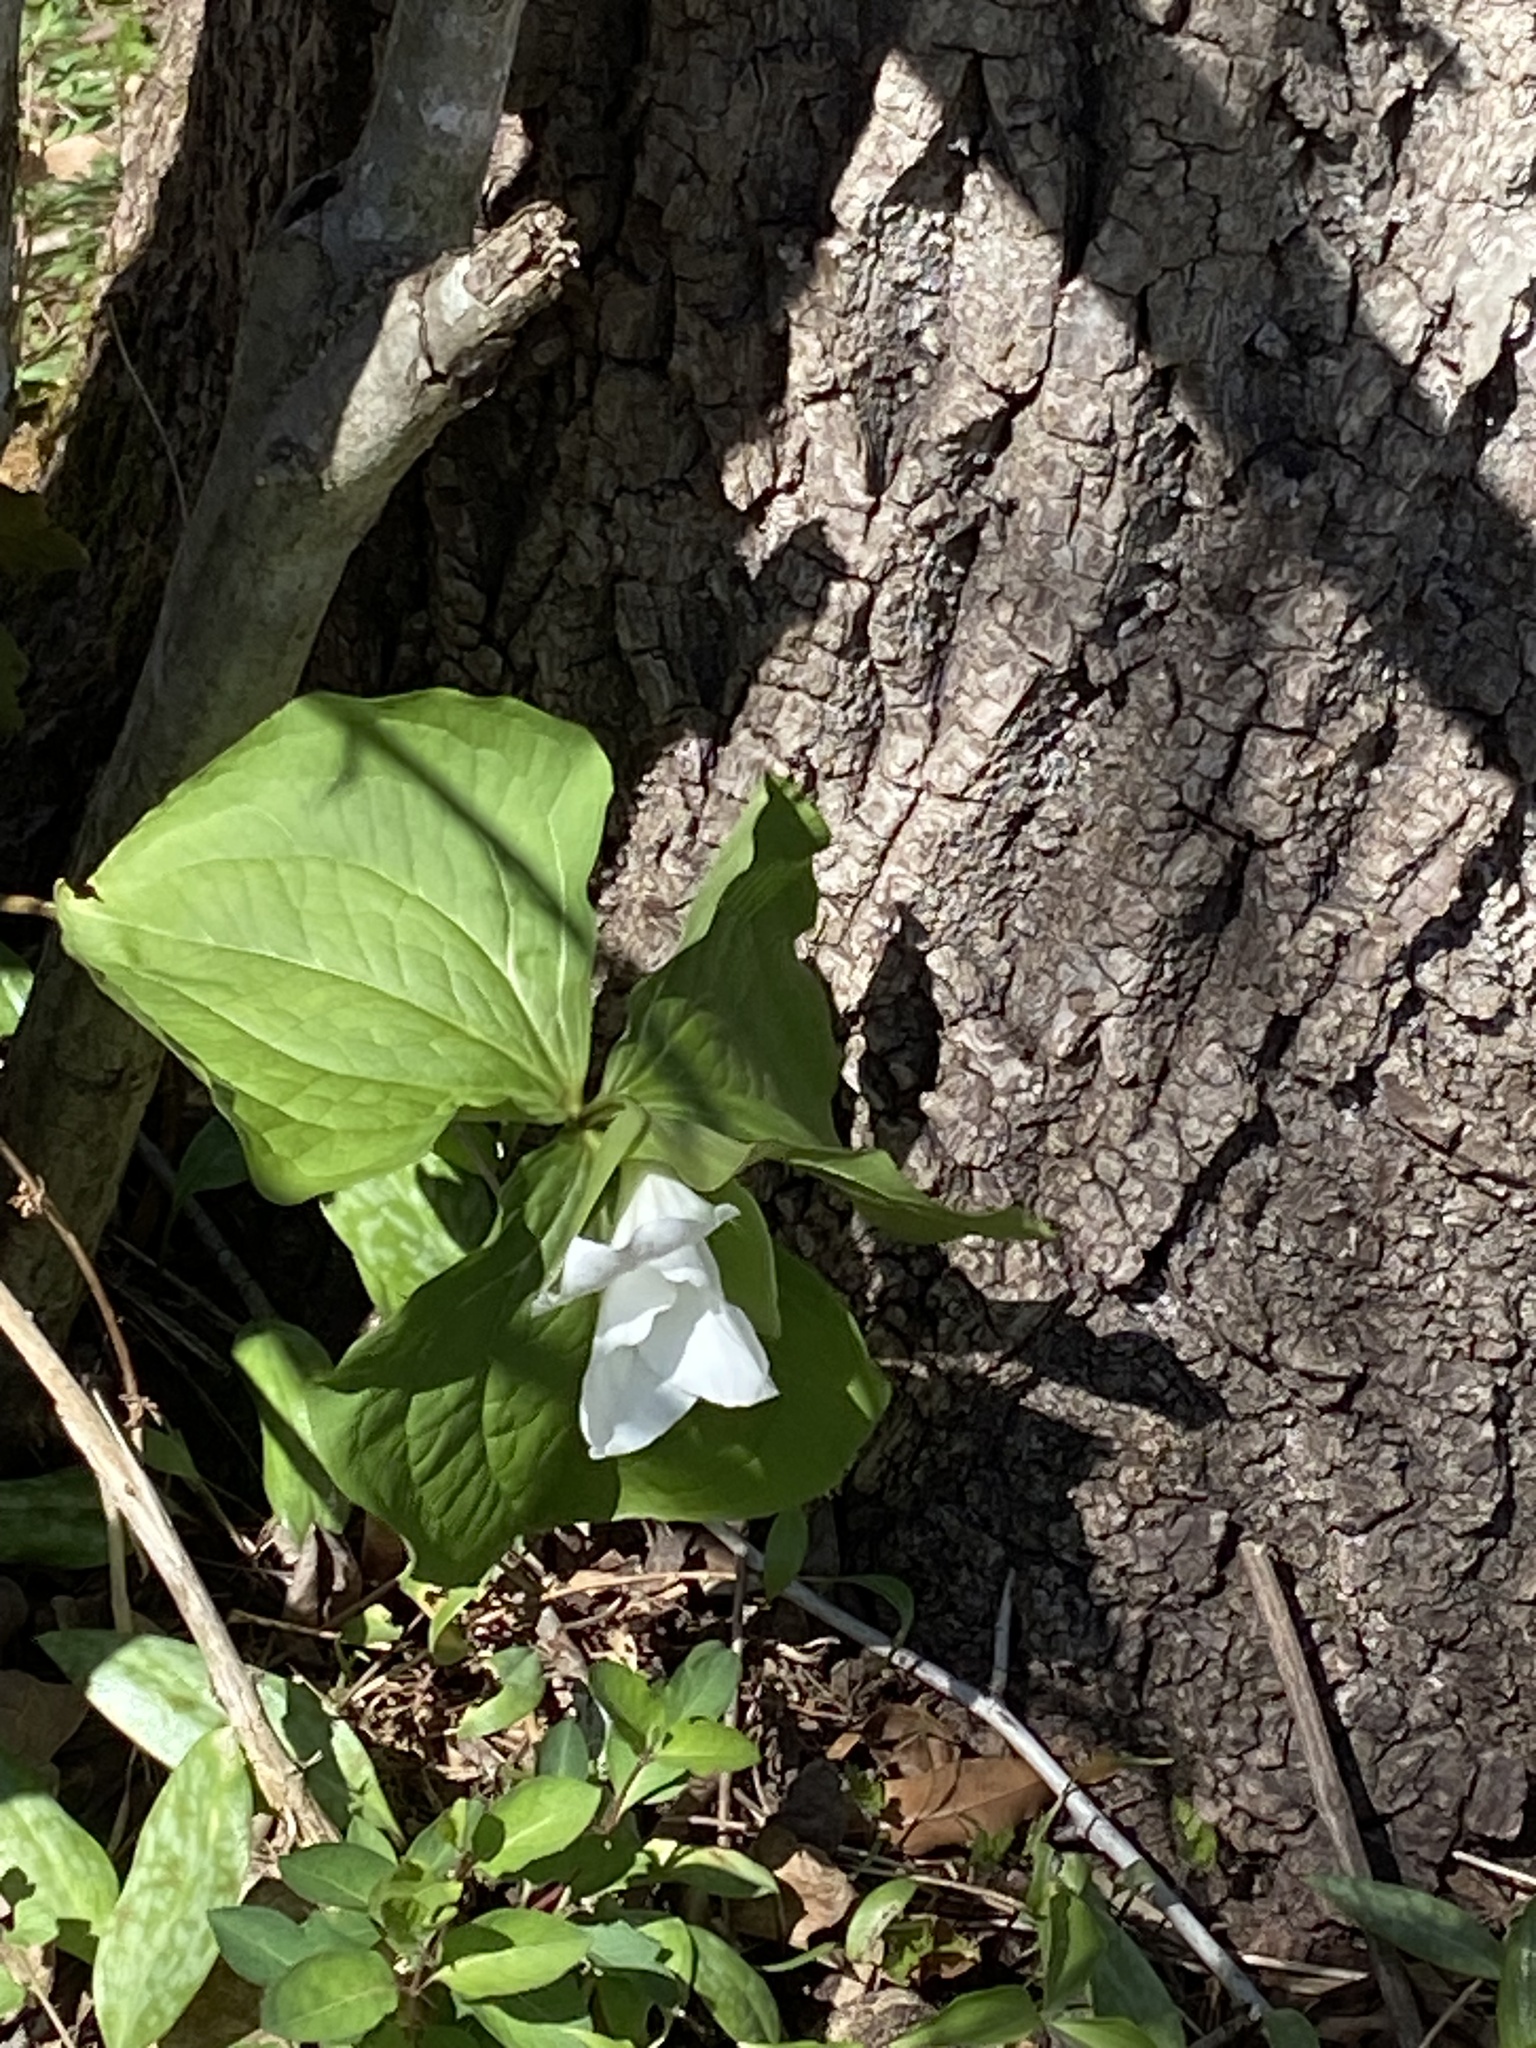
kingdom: Plantae
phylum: Tracheophyta
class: Liliopsida
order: Liliales
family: Melanthiaceae
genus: Trillium
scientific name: Trillium grandiflorum
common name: Great white trillium
